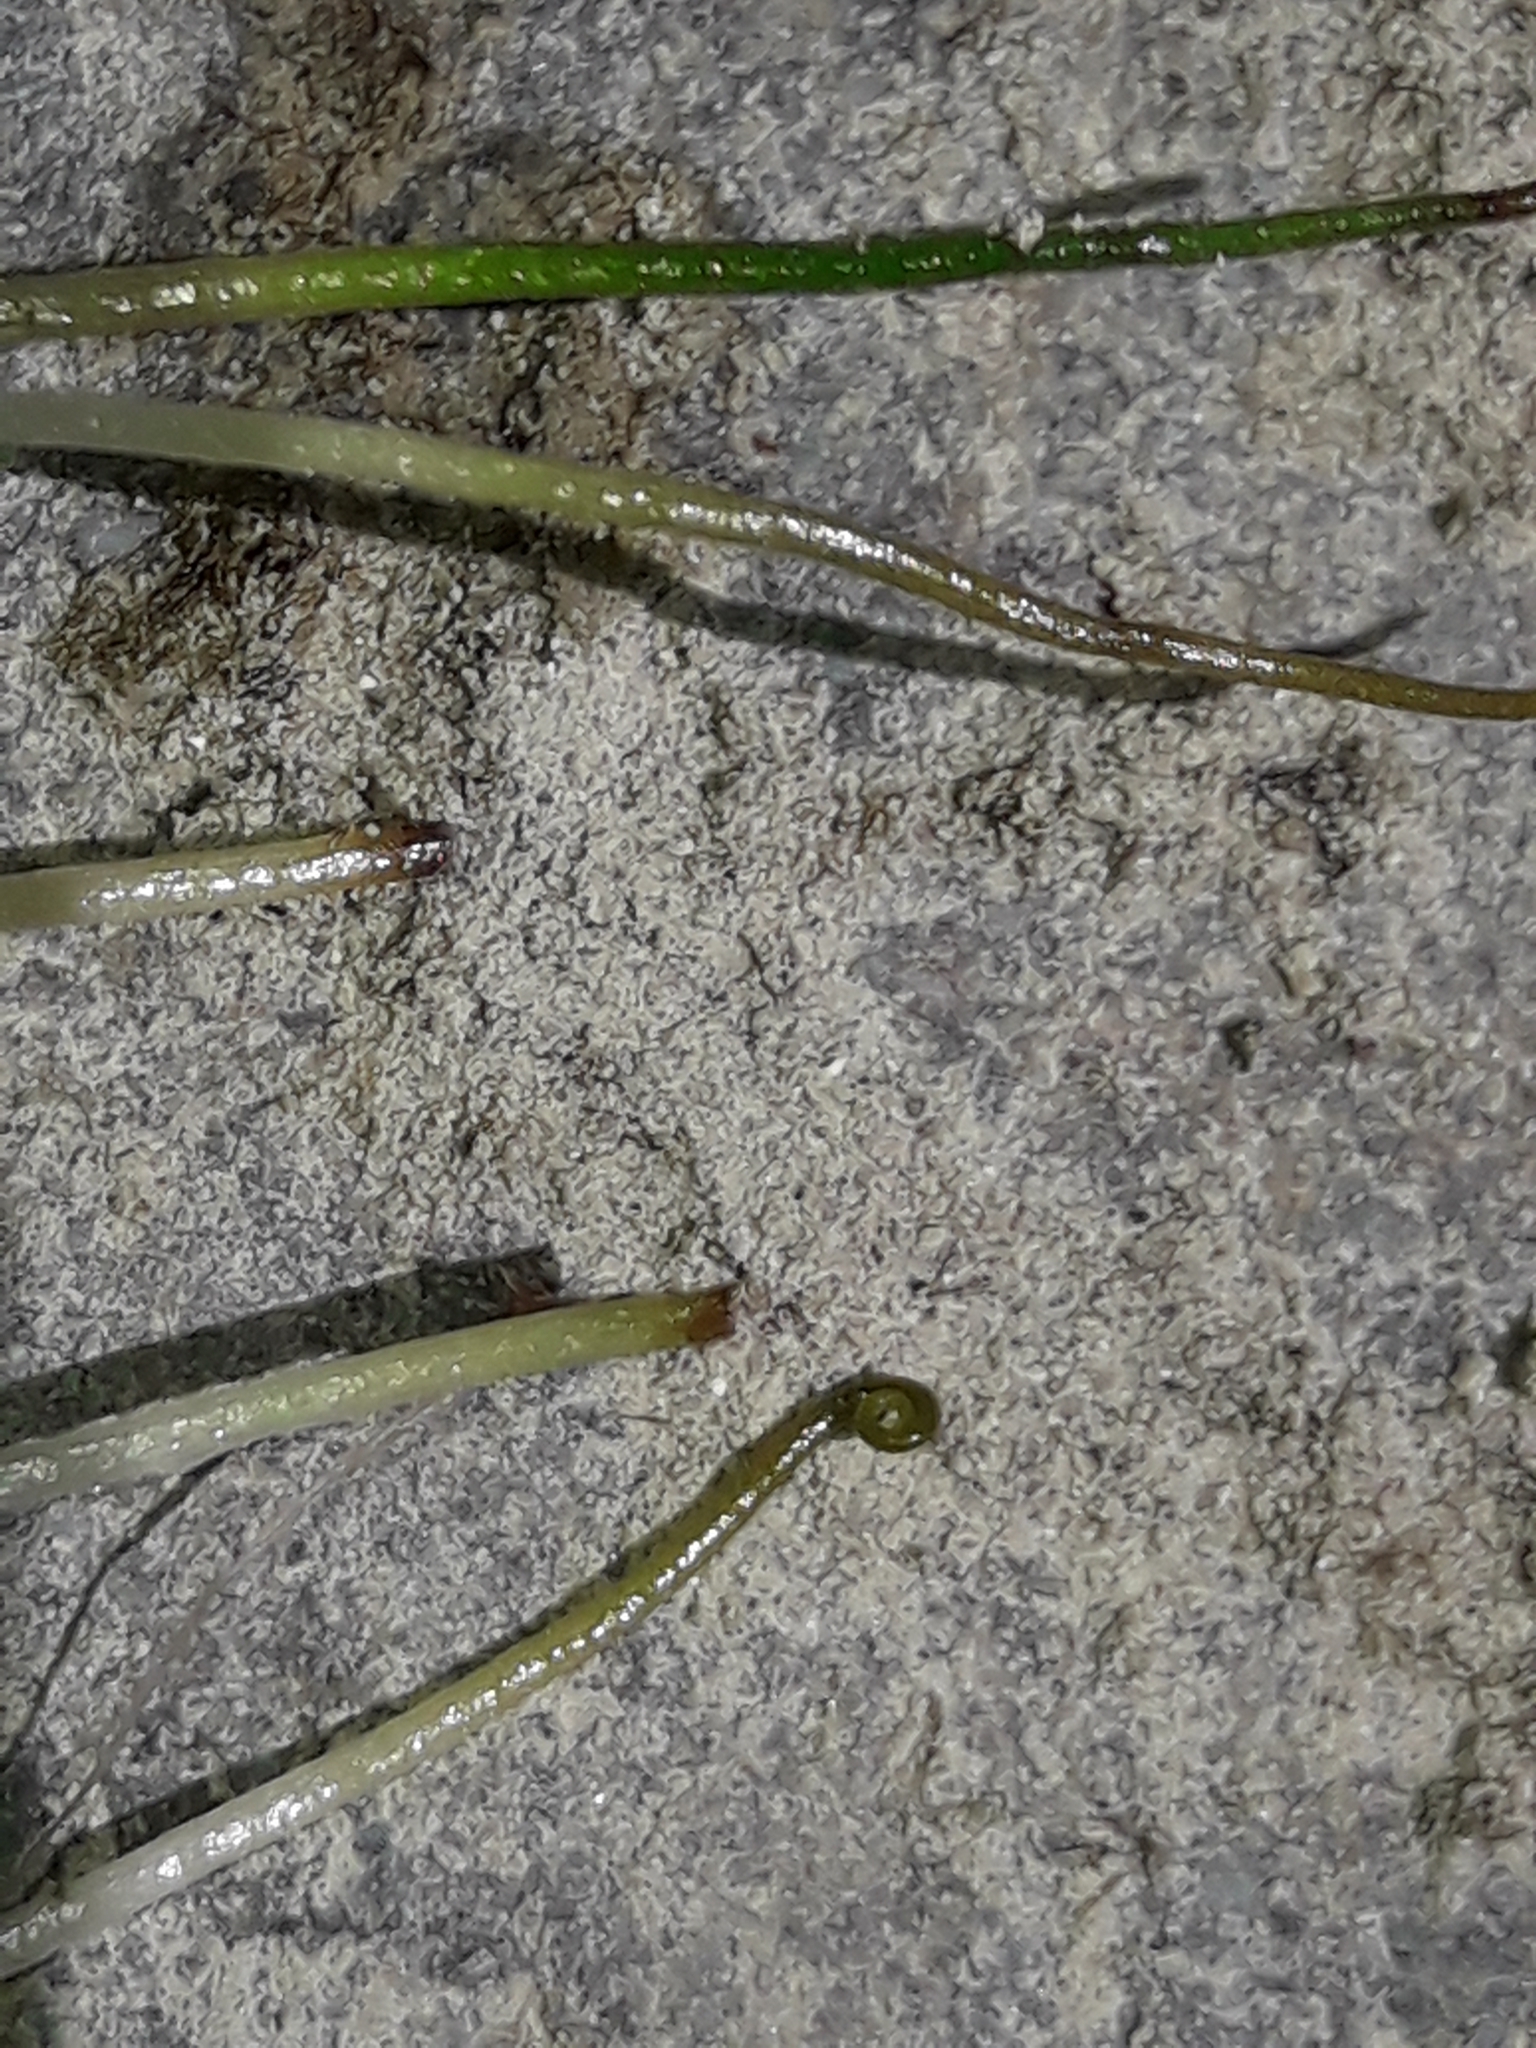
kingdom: Plantae
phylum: Tracheophyta
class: Polypodiopsida
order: Salviniales
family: Marsileaceae
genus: Pilularia
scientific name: Pilularia novae-hollandiae
